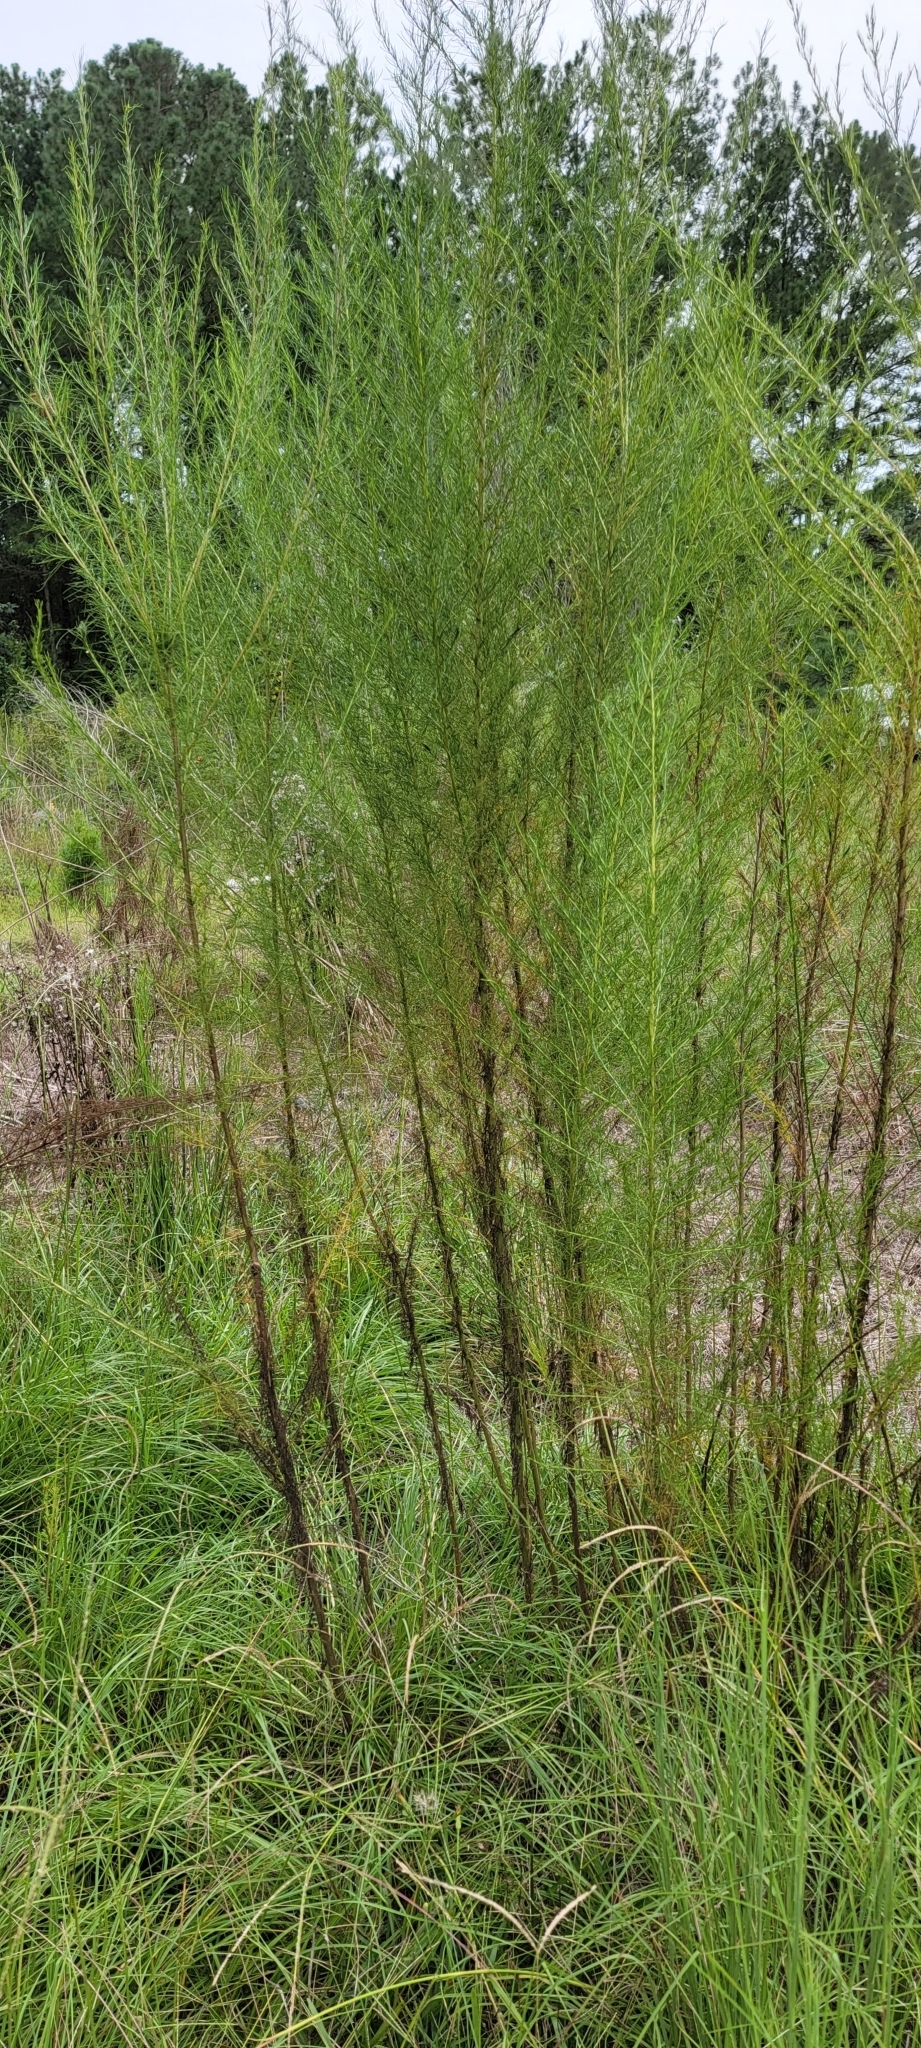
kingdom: Plantae
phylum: Tracheophyta
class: Magnoliopsida
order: Asterales
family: Asteraceae
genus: Eupatorium
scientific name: Eupatorium capillifolium
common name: Dog-fennel
